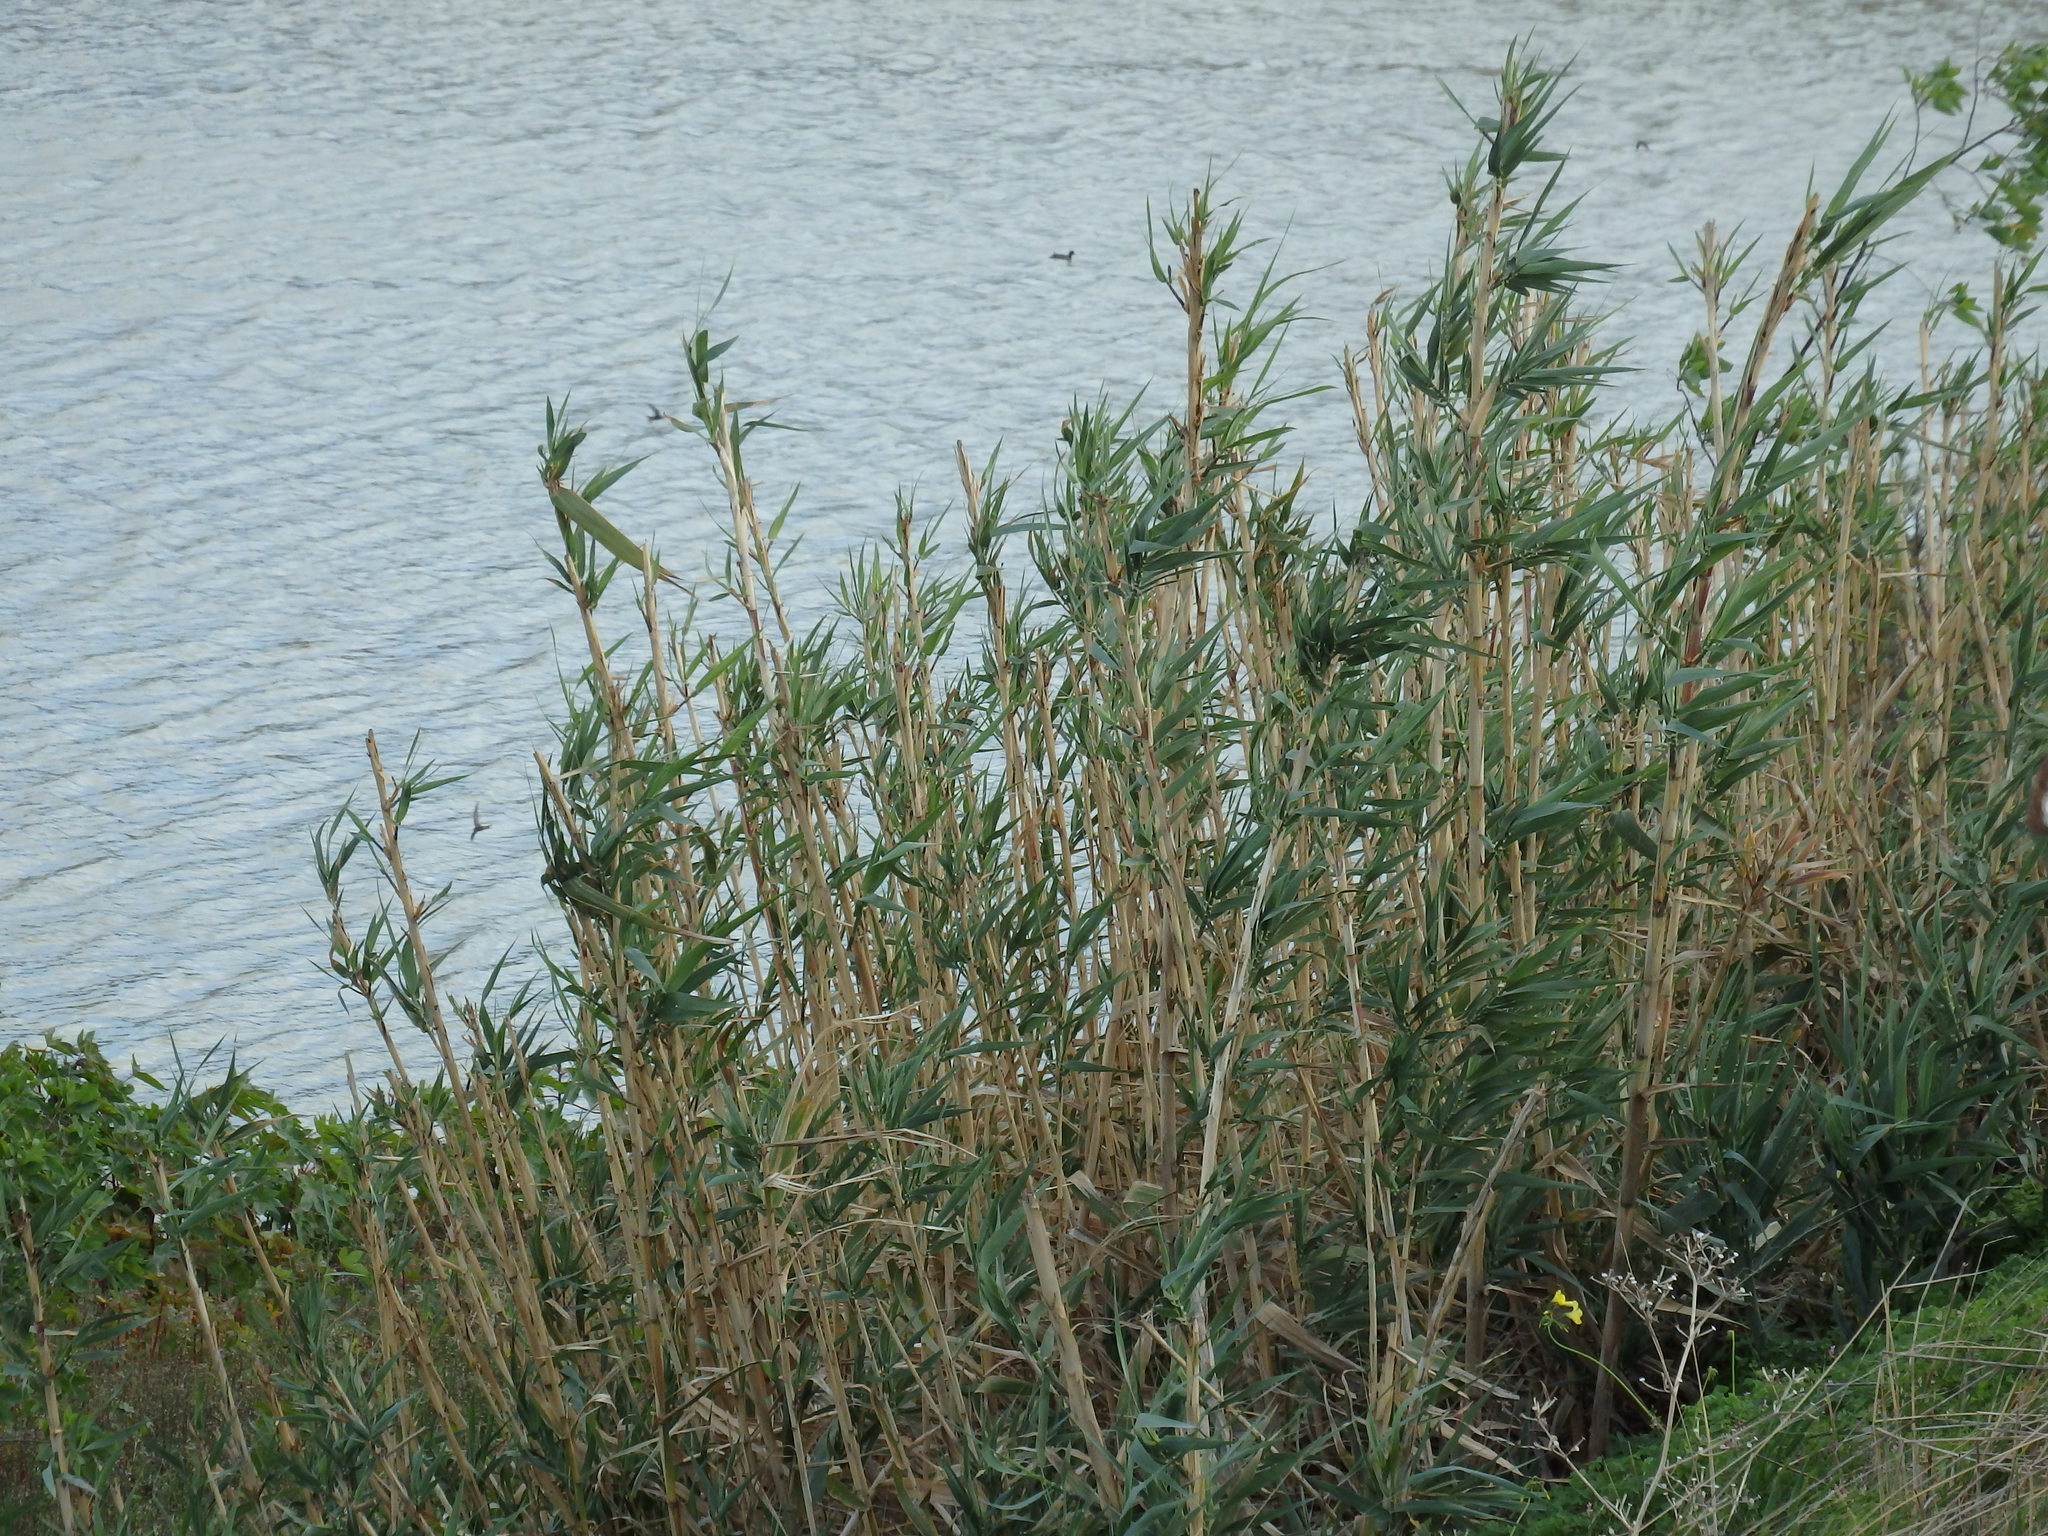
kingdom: Plantae
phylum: Tracheophyta
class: Liliopsida
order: Poales
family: Poaceae
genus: Arundo
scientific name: Arundo donax
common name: Giant reed
